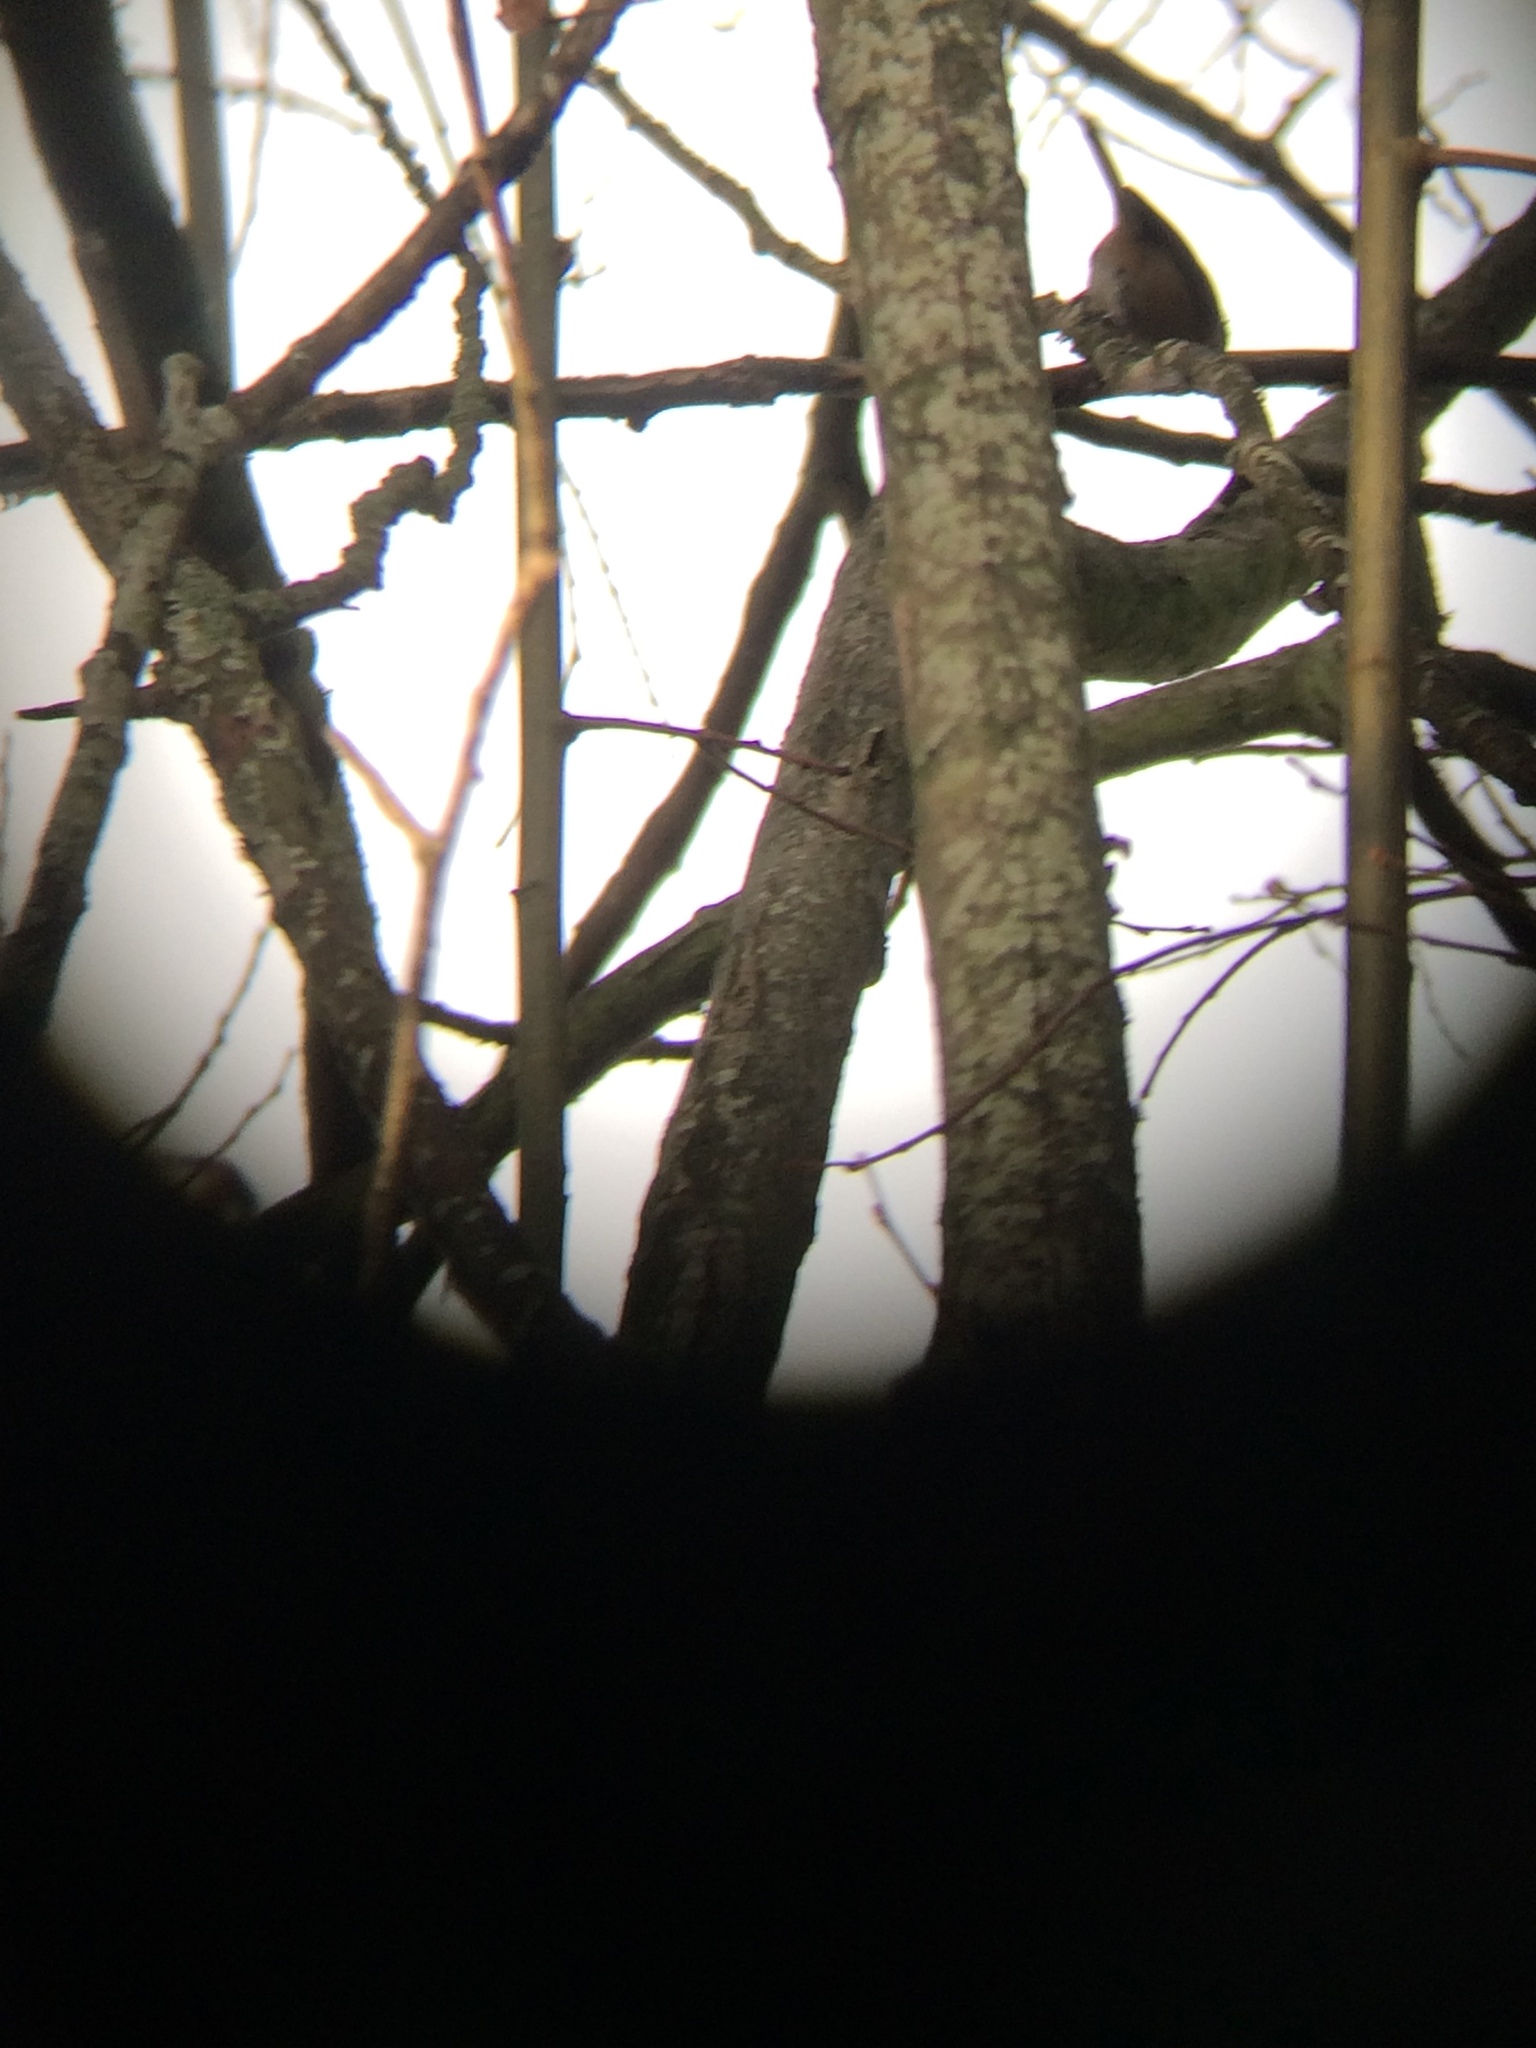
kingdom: Animalia
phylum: Chordata
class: Aves
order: Passeriformes
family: Paridae
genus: Poecile
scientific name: Poecile atricapillus
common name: Black-capped chickadee
